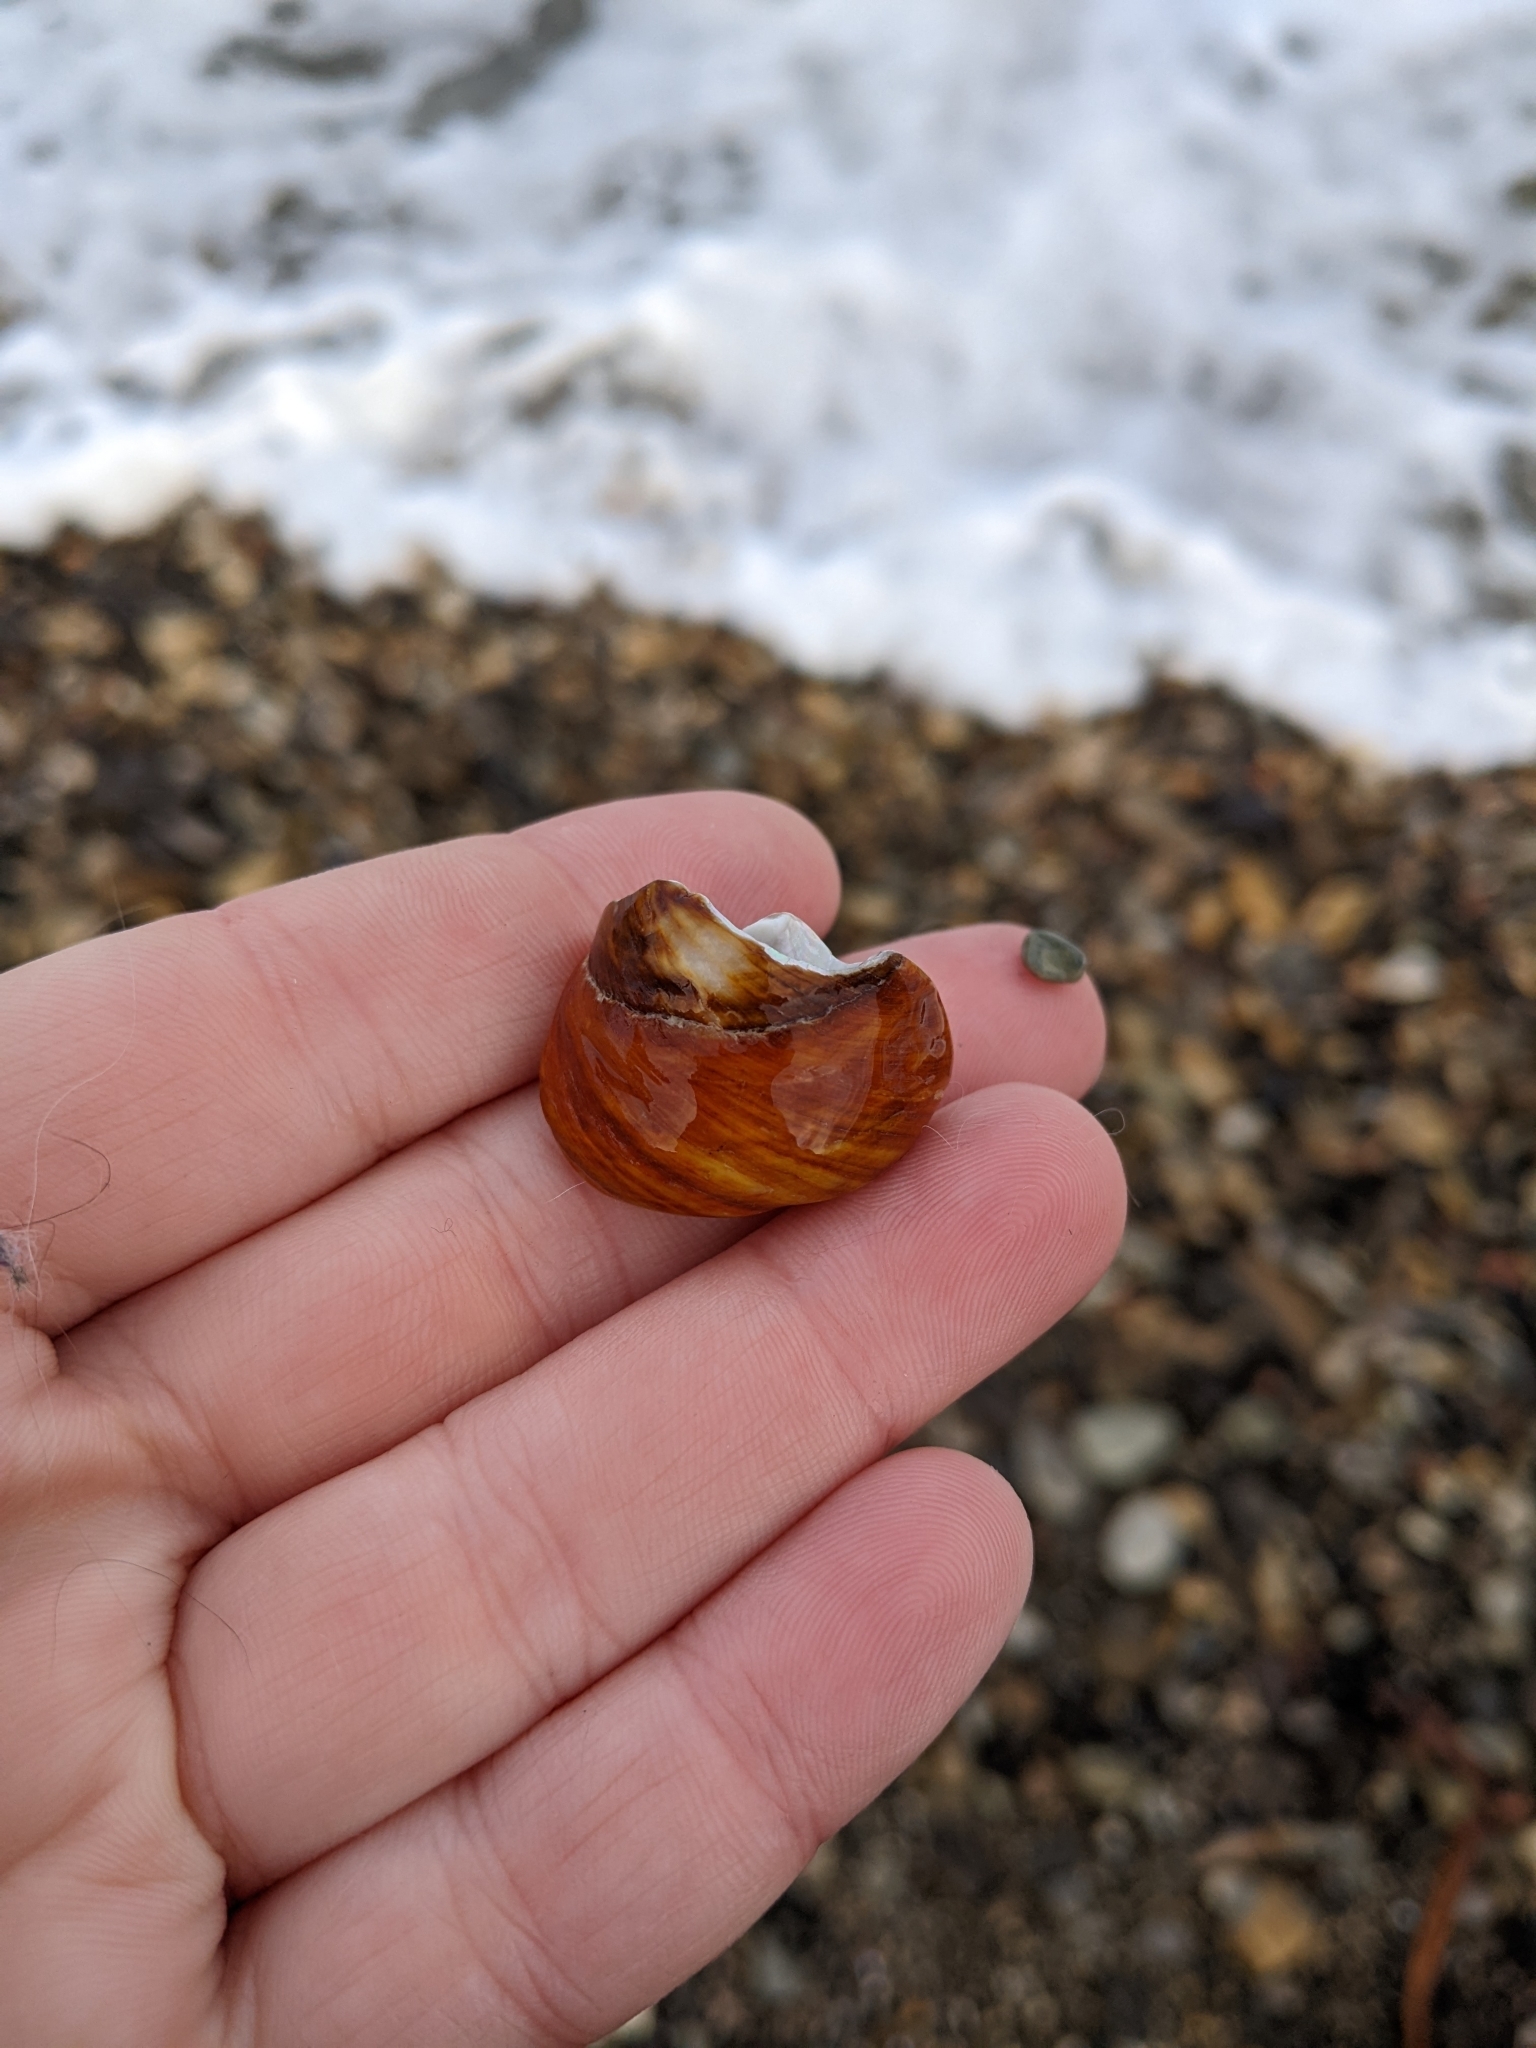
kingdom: Animalia
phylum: Mollusca
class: Gastropoda
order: Trochida
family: Tegulidae
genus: Tegula
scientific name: Tegula brunnea
